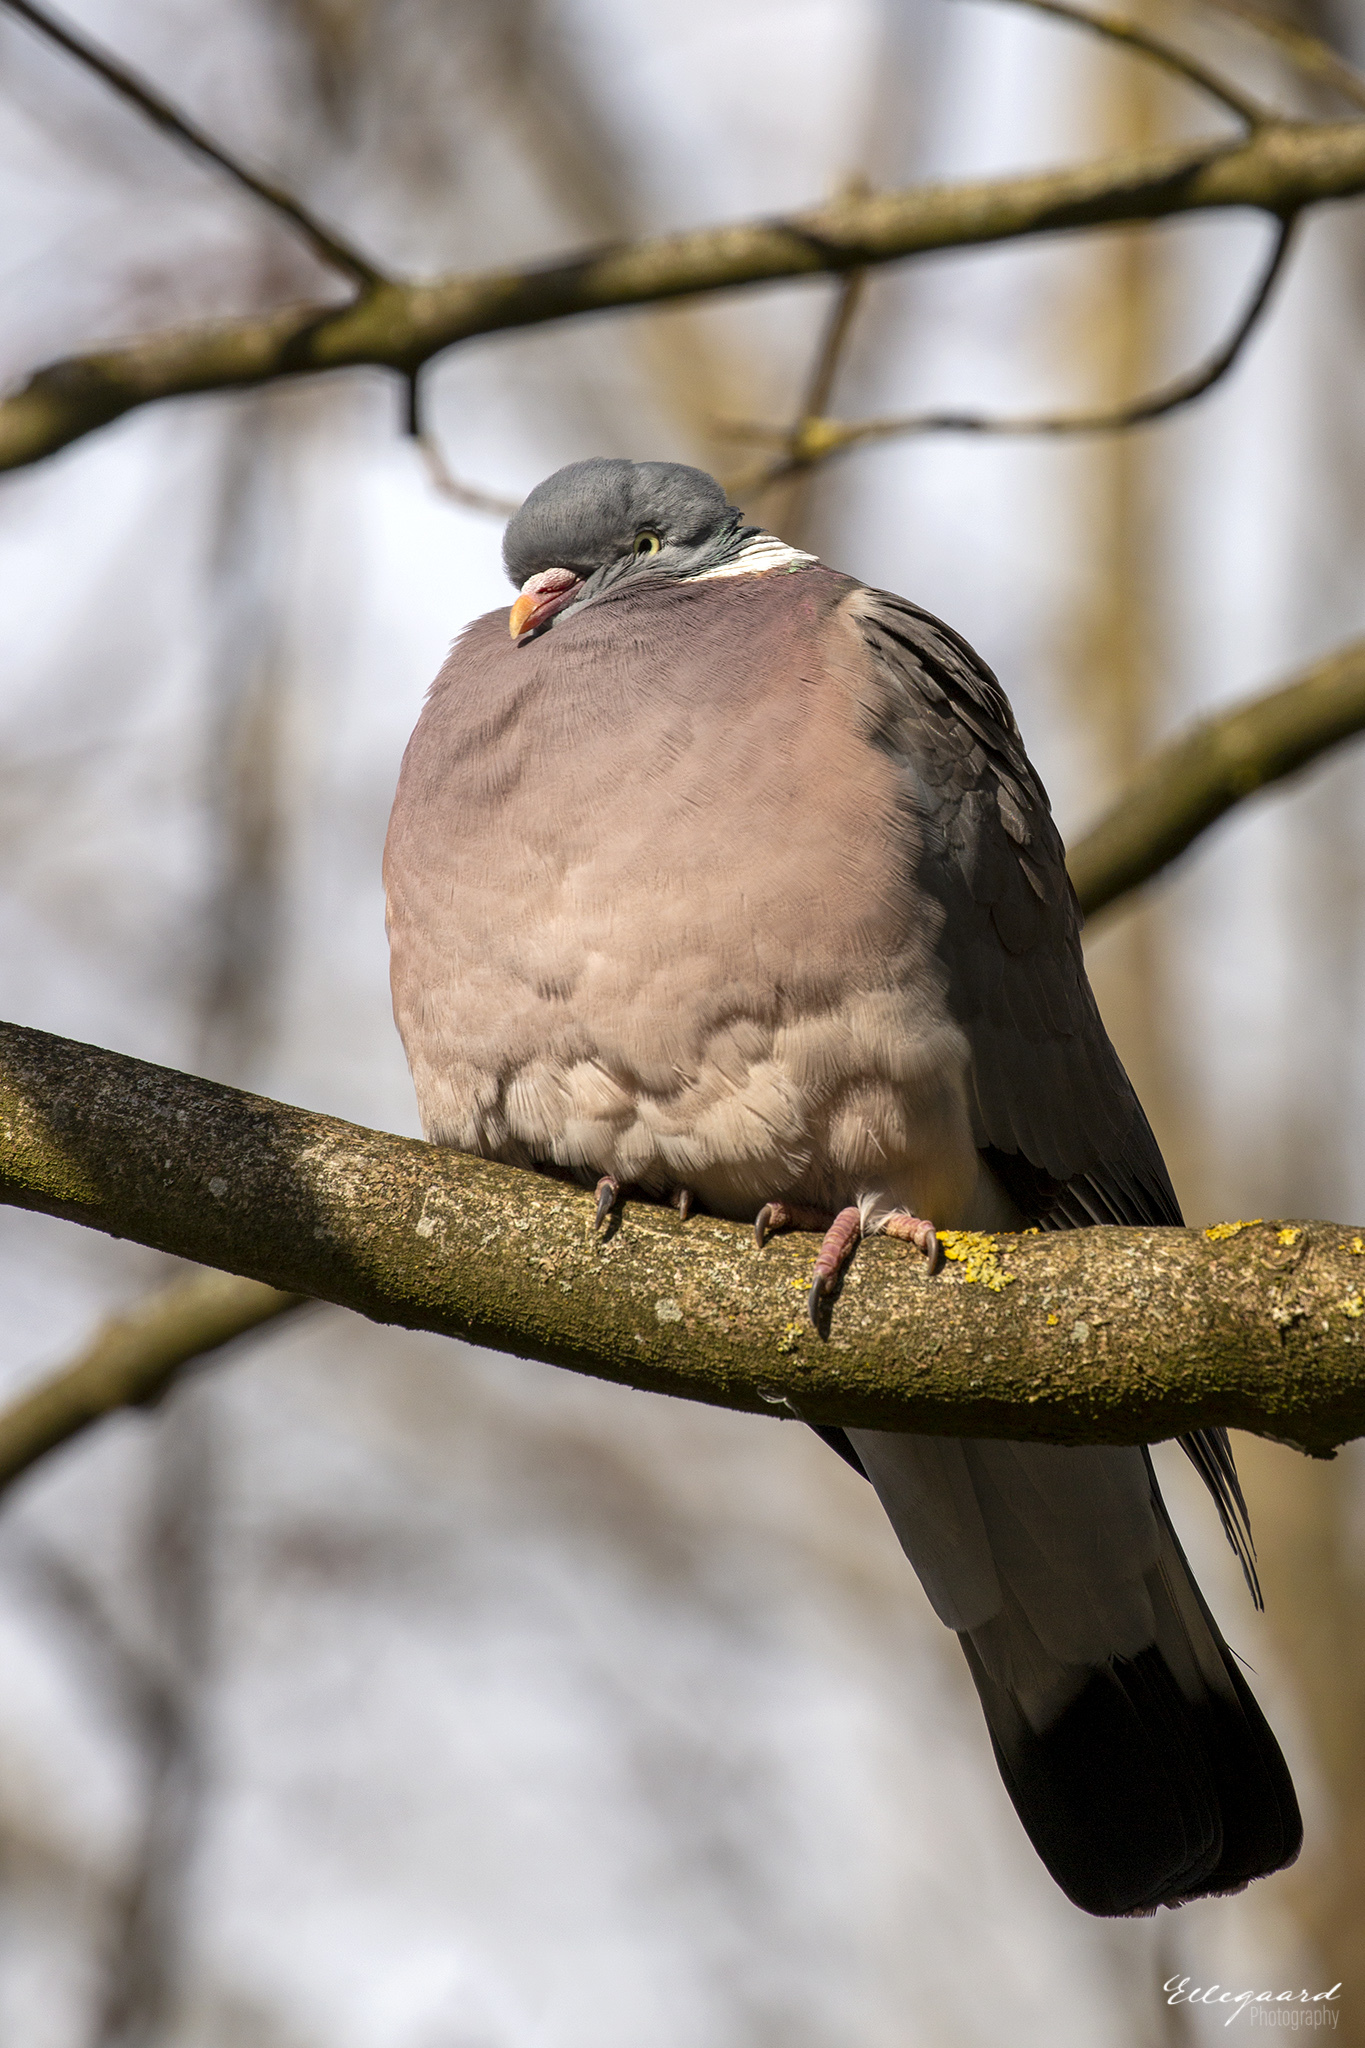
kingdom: Animalia
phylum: Chordata
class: Aves
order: Columbiformes
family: Columbidae
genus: Columba
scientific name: Columba palumbus
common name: Common wood pigeon
